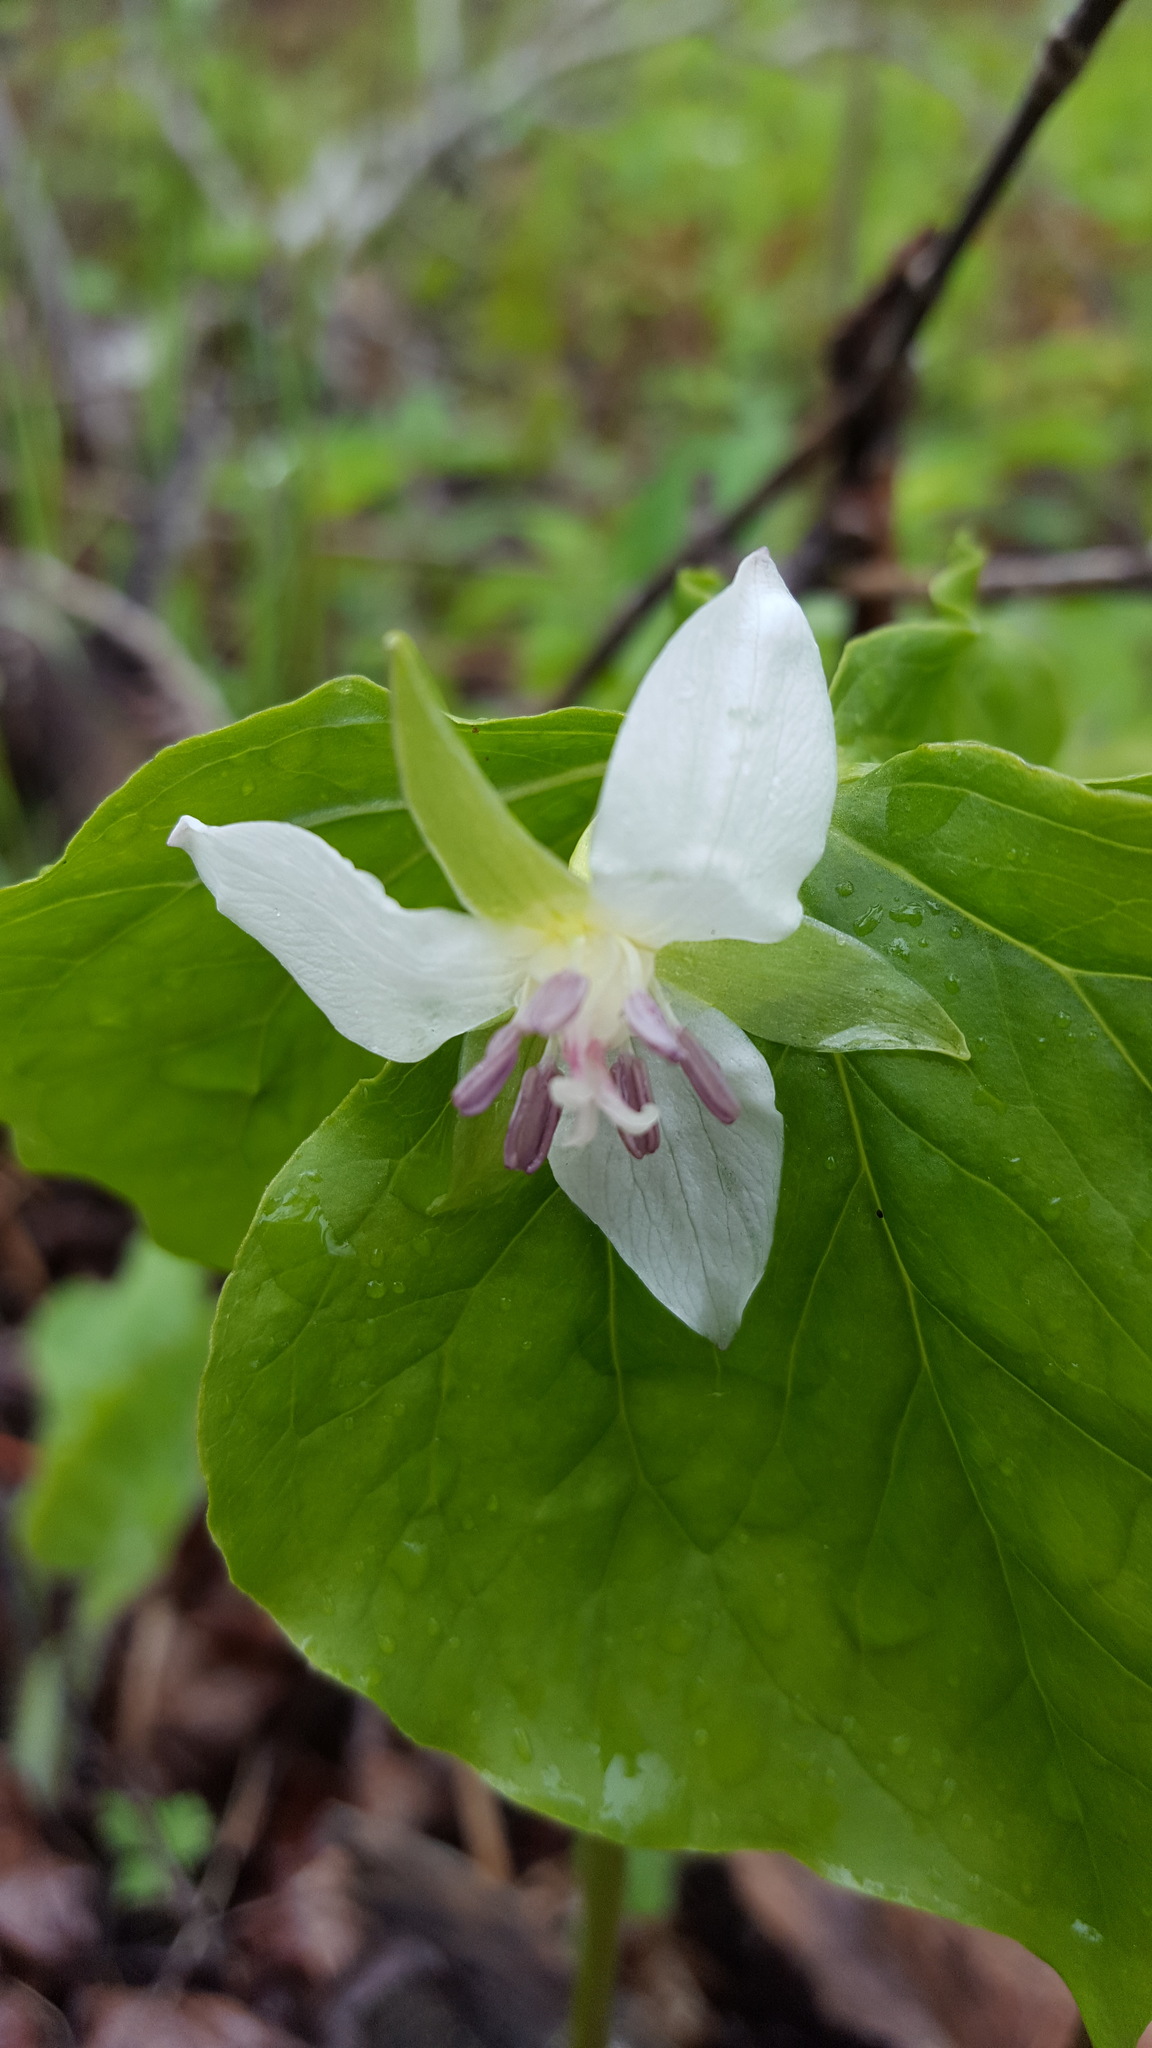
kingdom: Plantae
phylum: Tracheophyta
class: Liliopsida
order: Liliales
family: Melanthiaceae
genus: Trillium
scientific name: Trillium cernuum
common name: Nodding trillium
